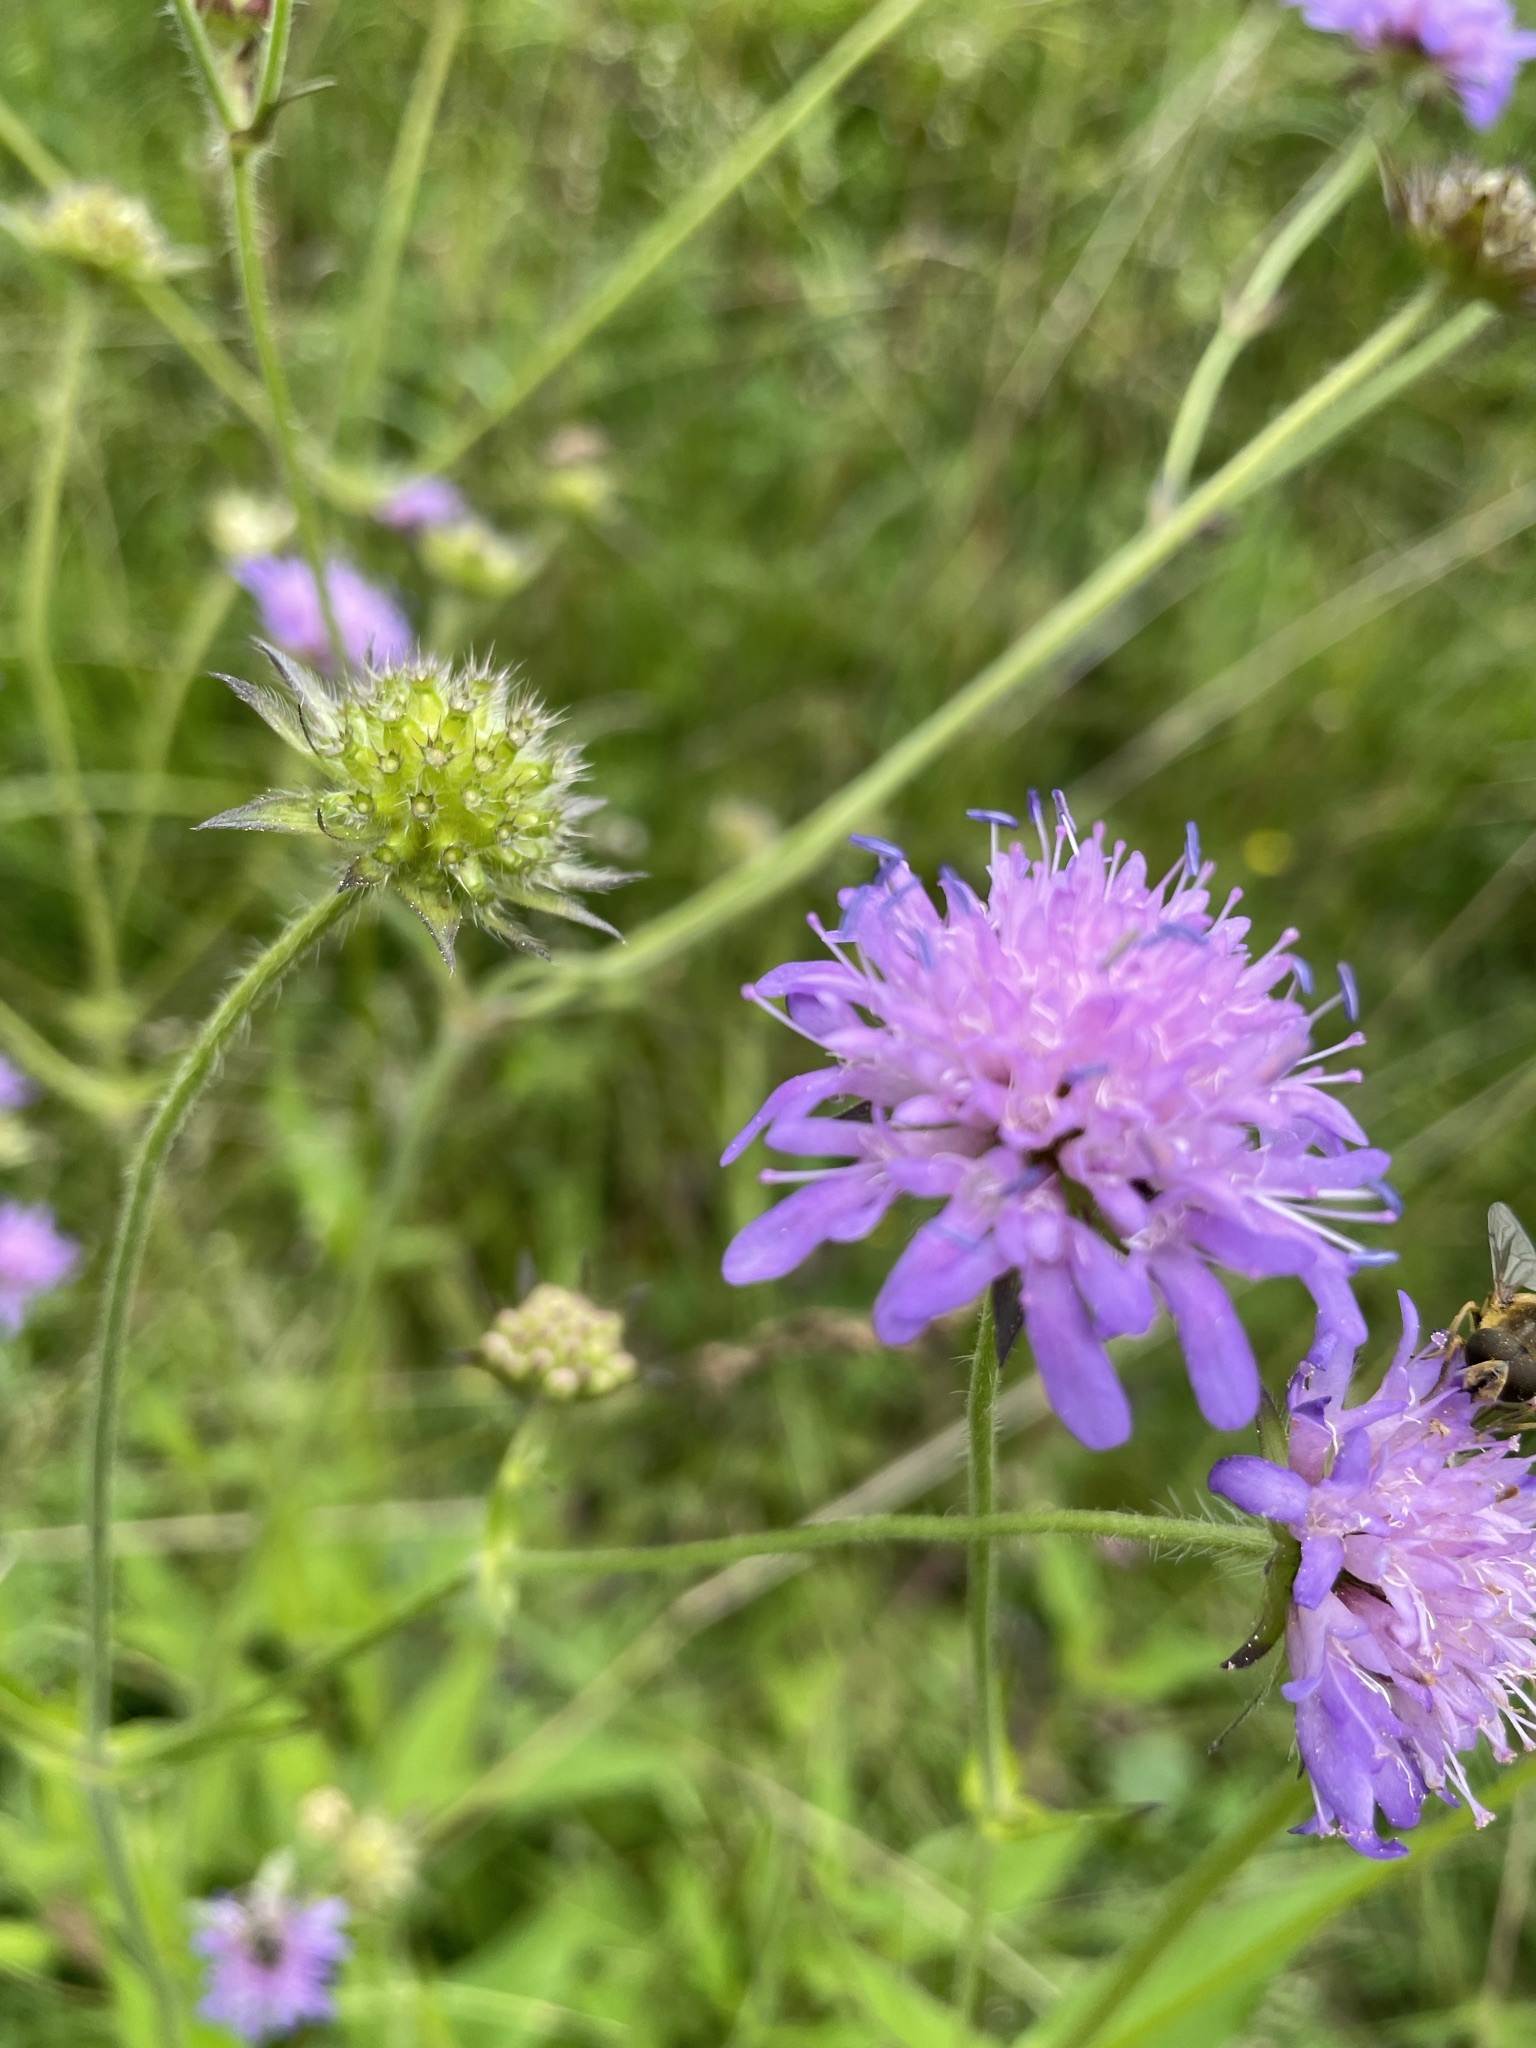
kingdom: Plantae
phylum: Tracheophyta
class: Magnoliopsida
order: Dipsacales
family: Caprifoliaceae
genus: Knautia
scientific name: Knautia dipsacifolia
